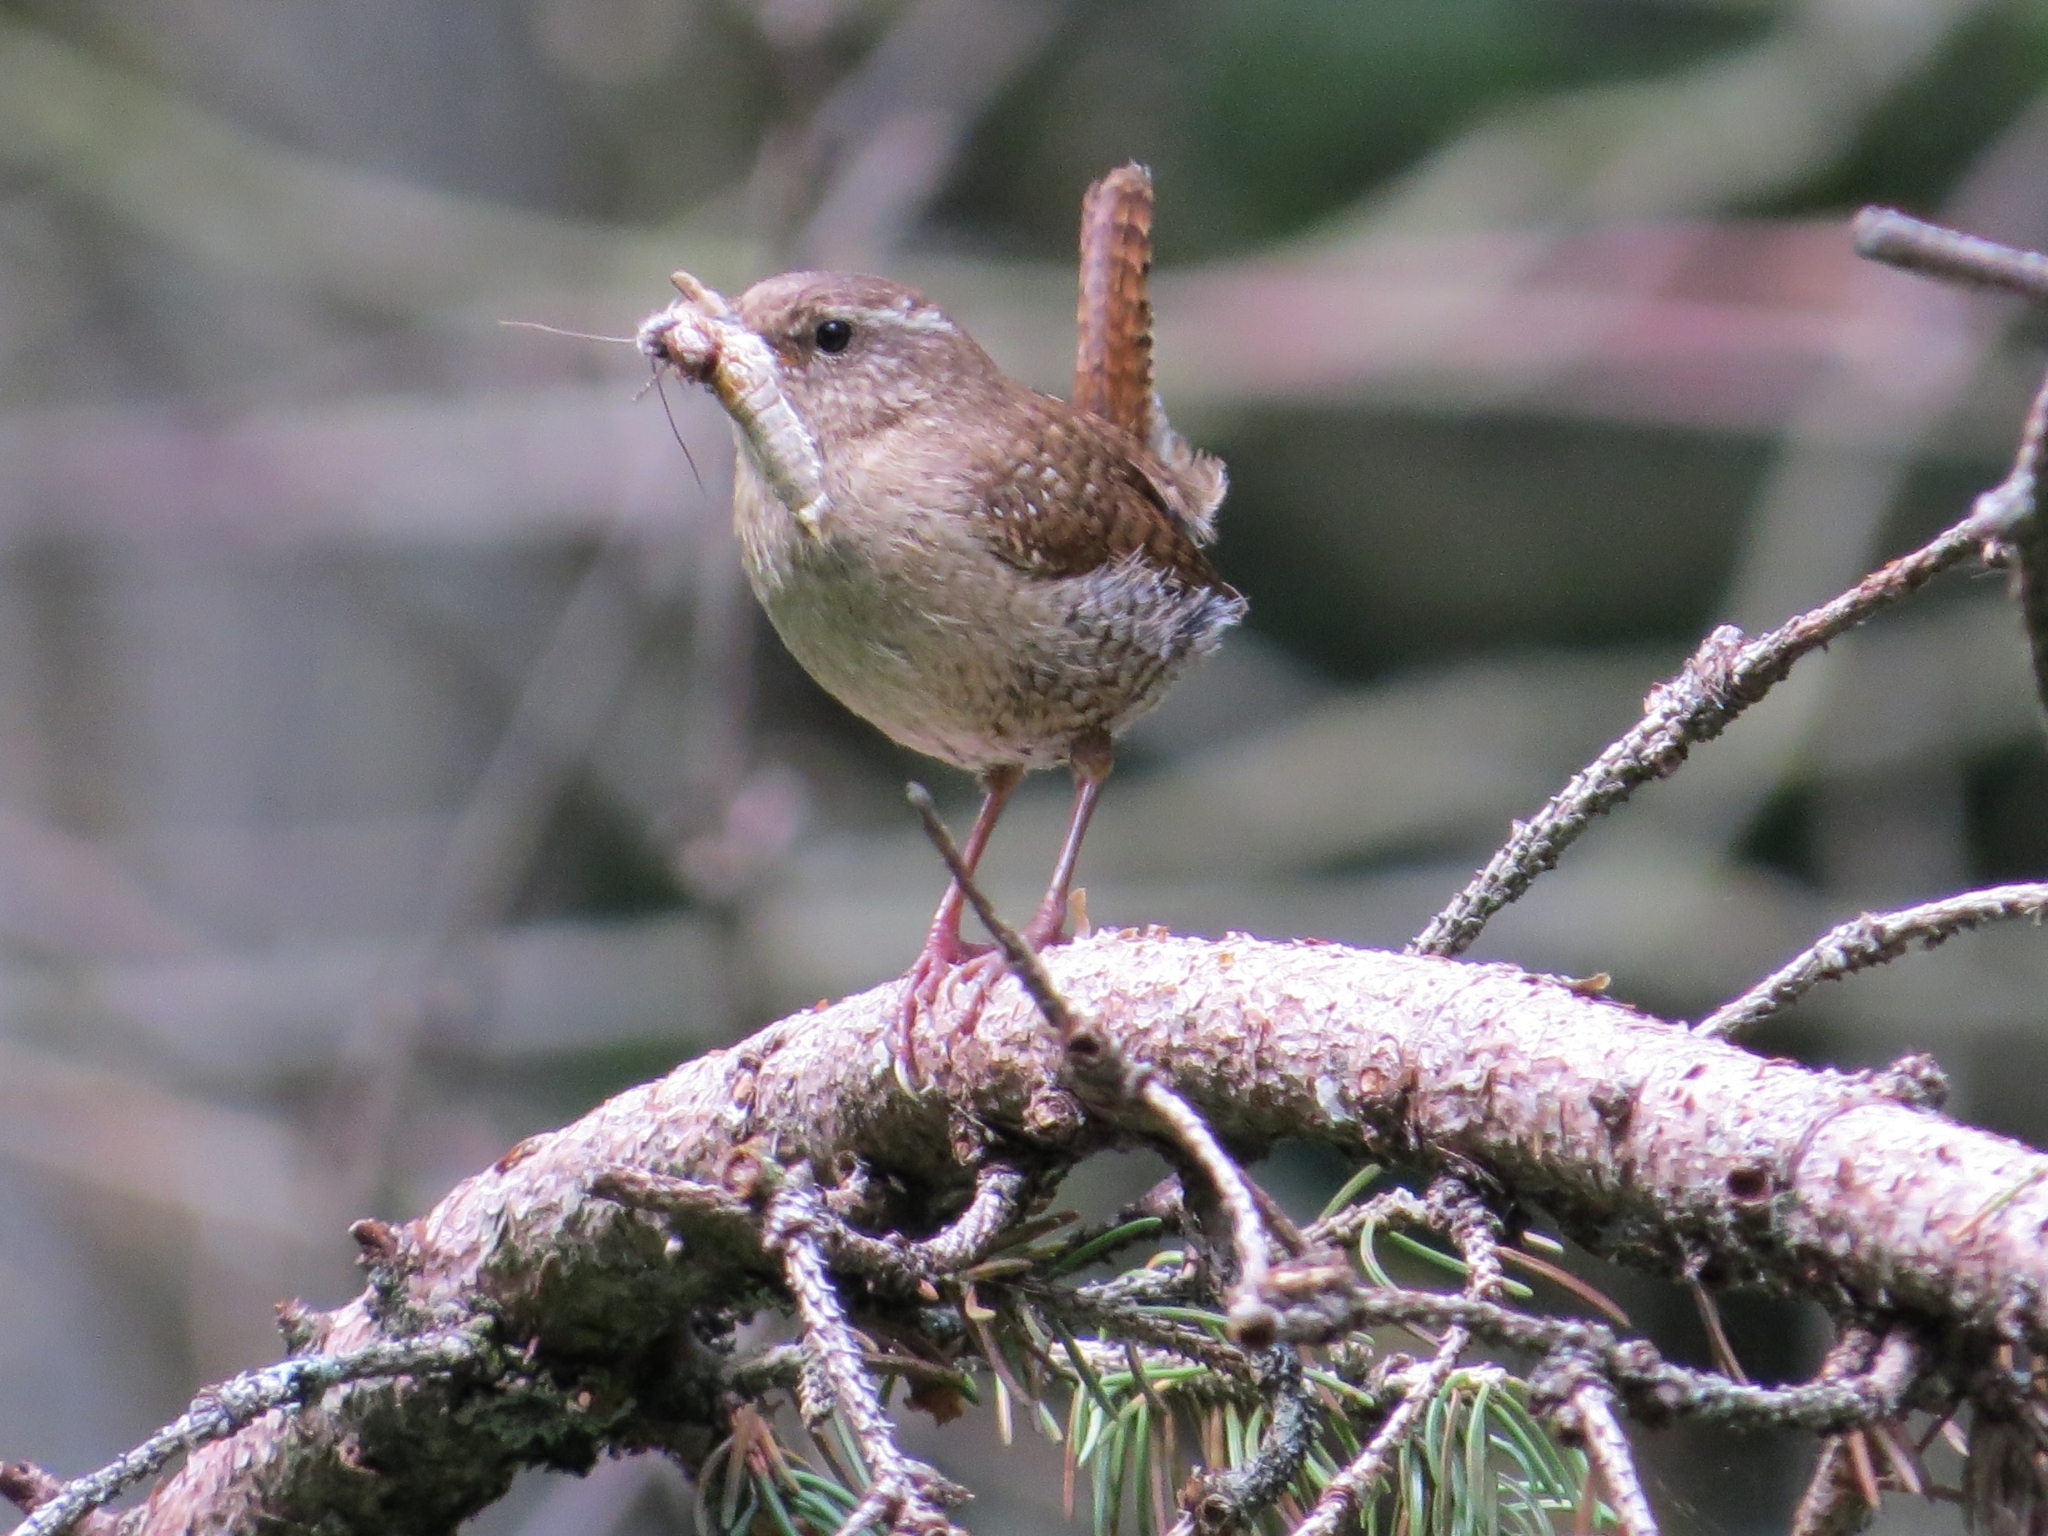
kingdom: Animalia
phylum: Chordata
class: Aves
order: Passeriformes
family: Troglodytidae
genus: Troglodytes
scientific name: Troglodytes troglodytes
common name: Eurasian wren
